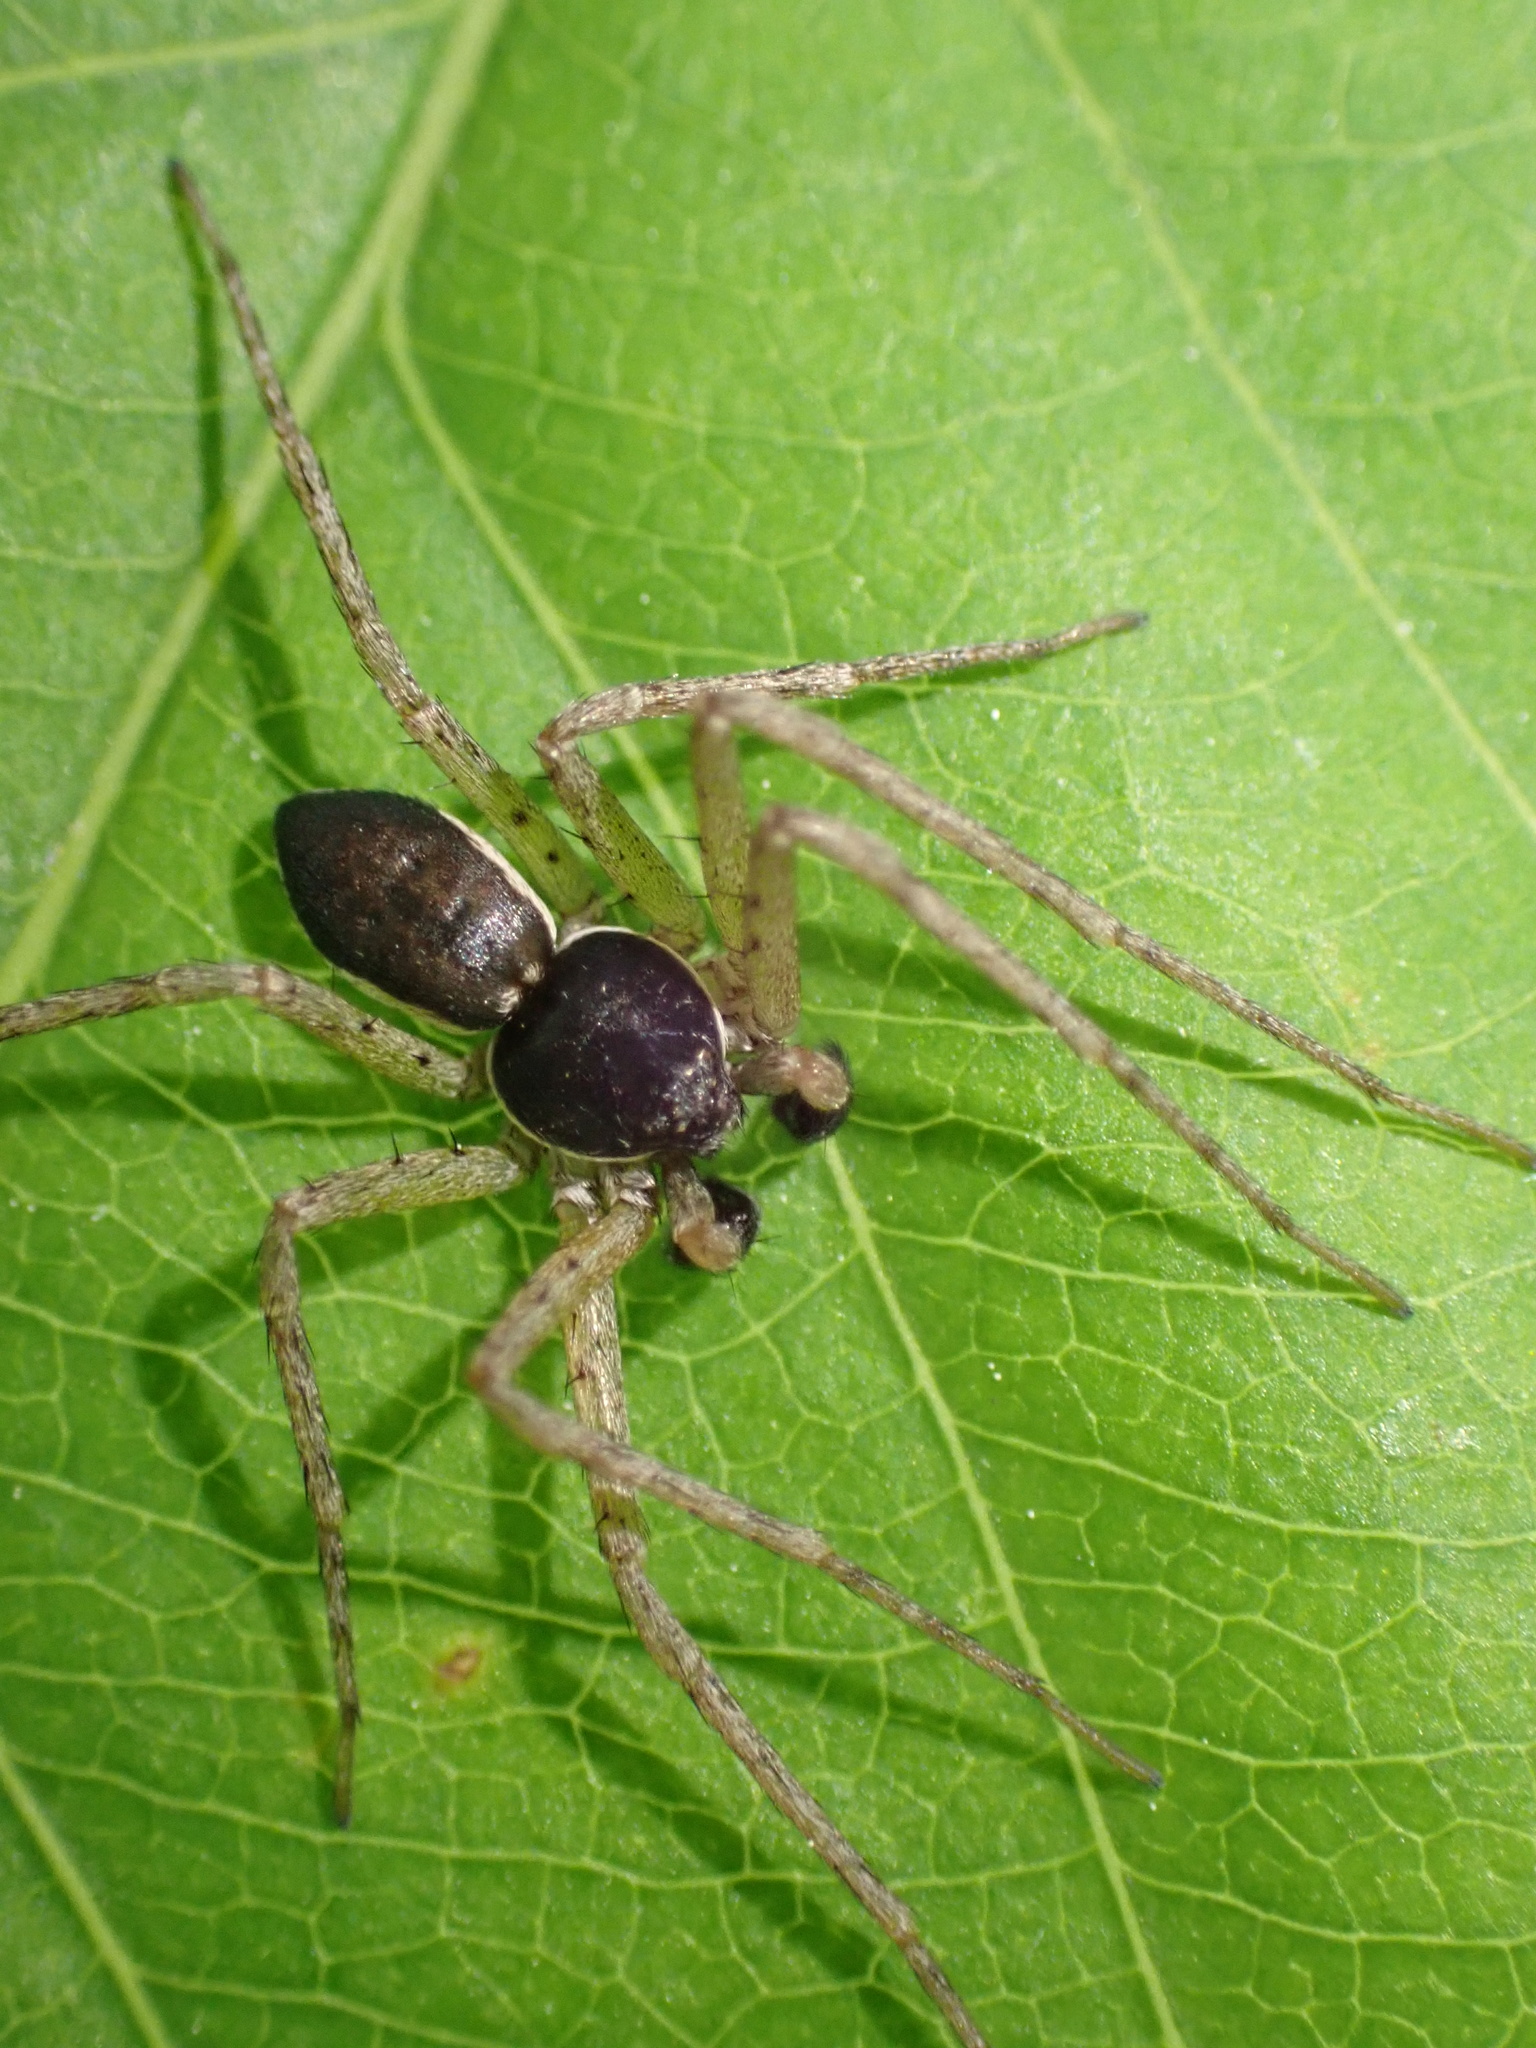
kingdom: Animalia
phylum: Arthropoda
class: Arachnida
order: Araneae
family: Philodromidae
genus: Philodromus
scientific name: Philodromus dispar
